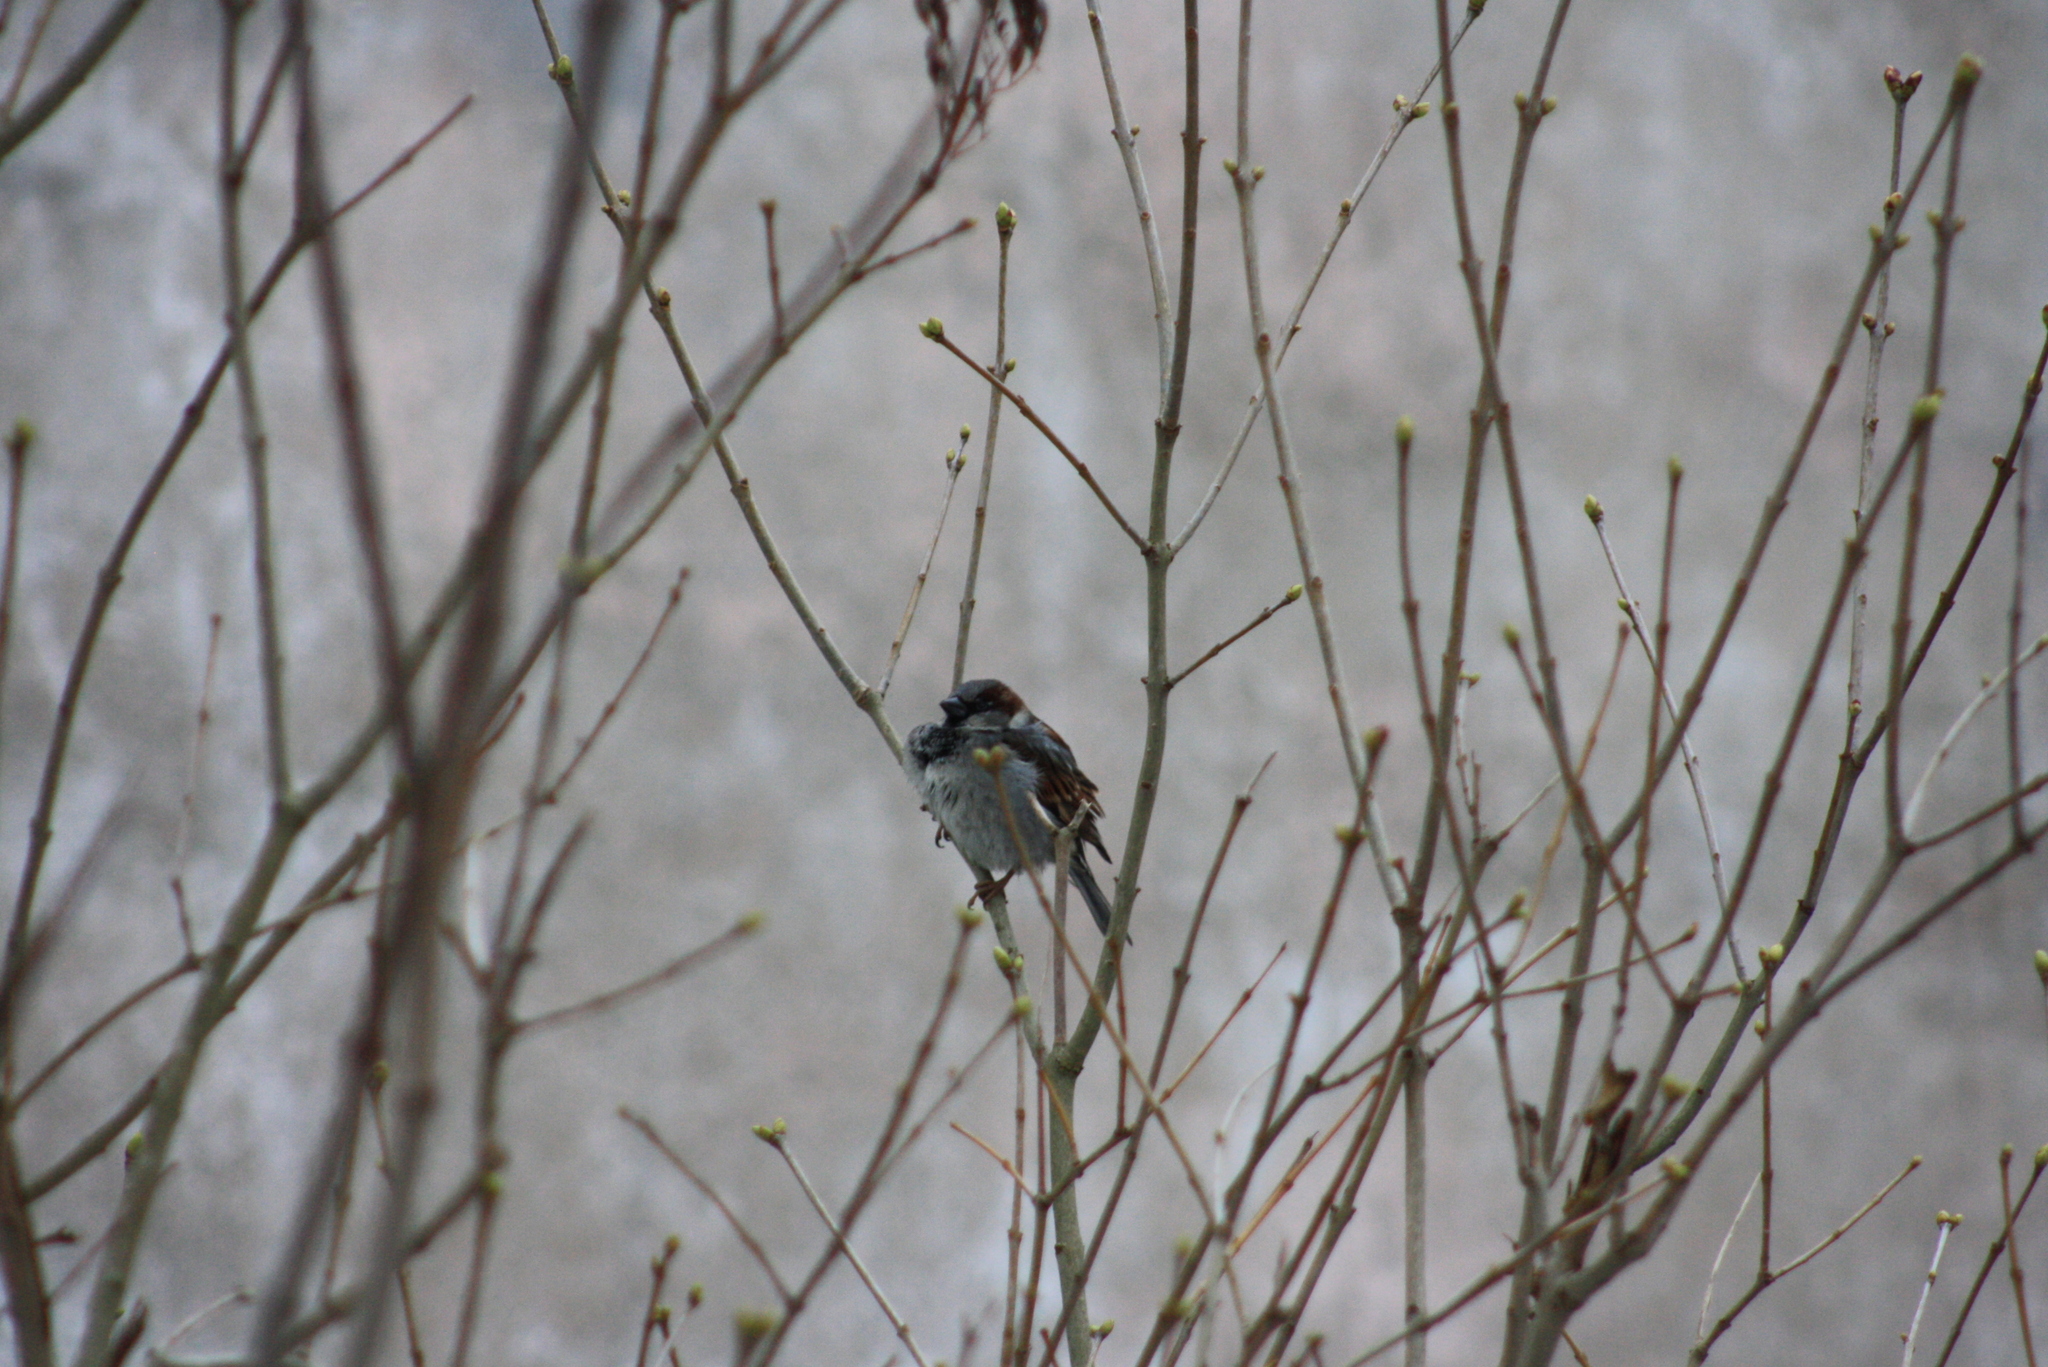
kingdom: Animalia
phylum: Chordata
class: Aves
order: Passeriformes
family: Passeridae
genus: Passer
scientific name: Passer domesticus
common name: House sparrow
